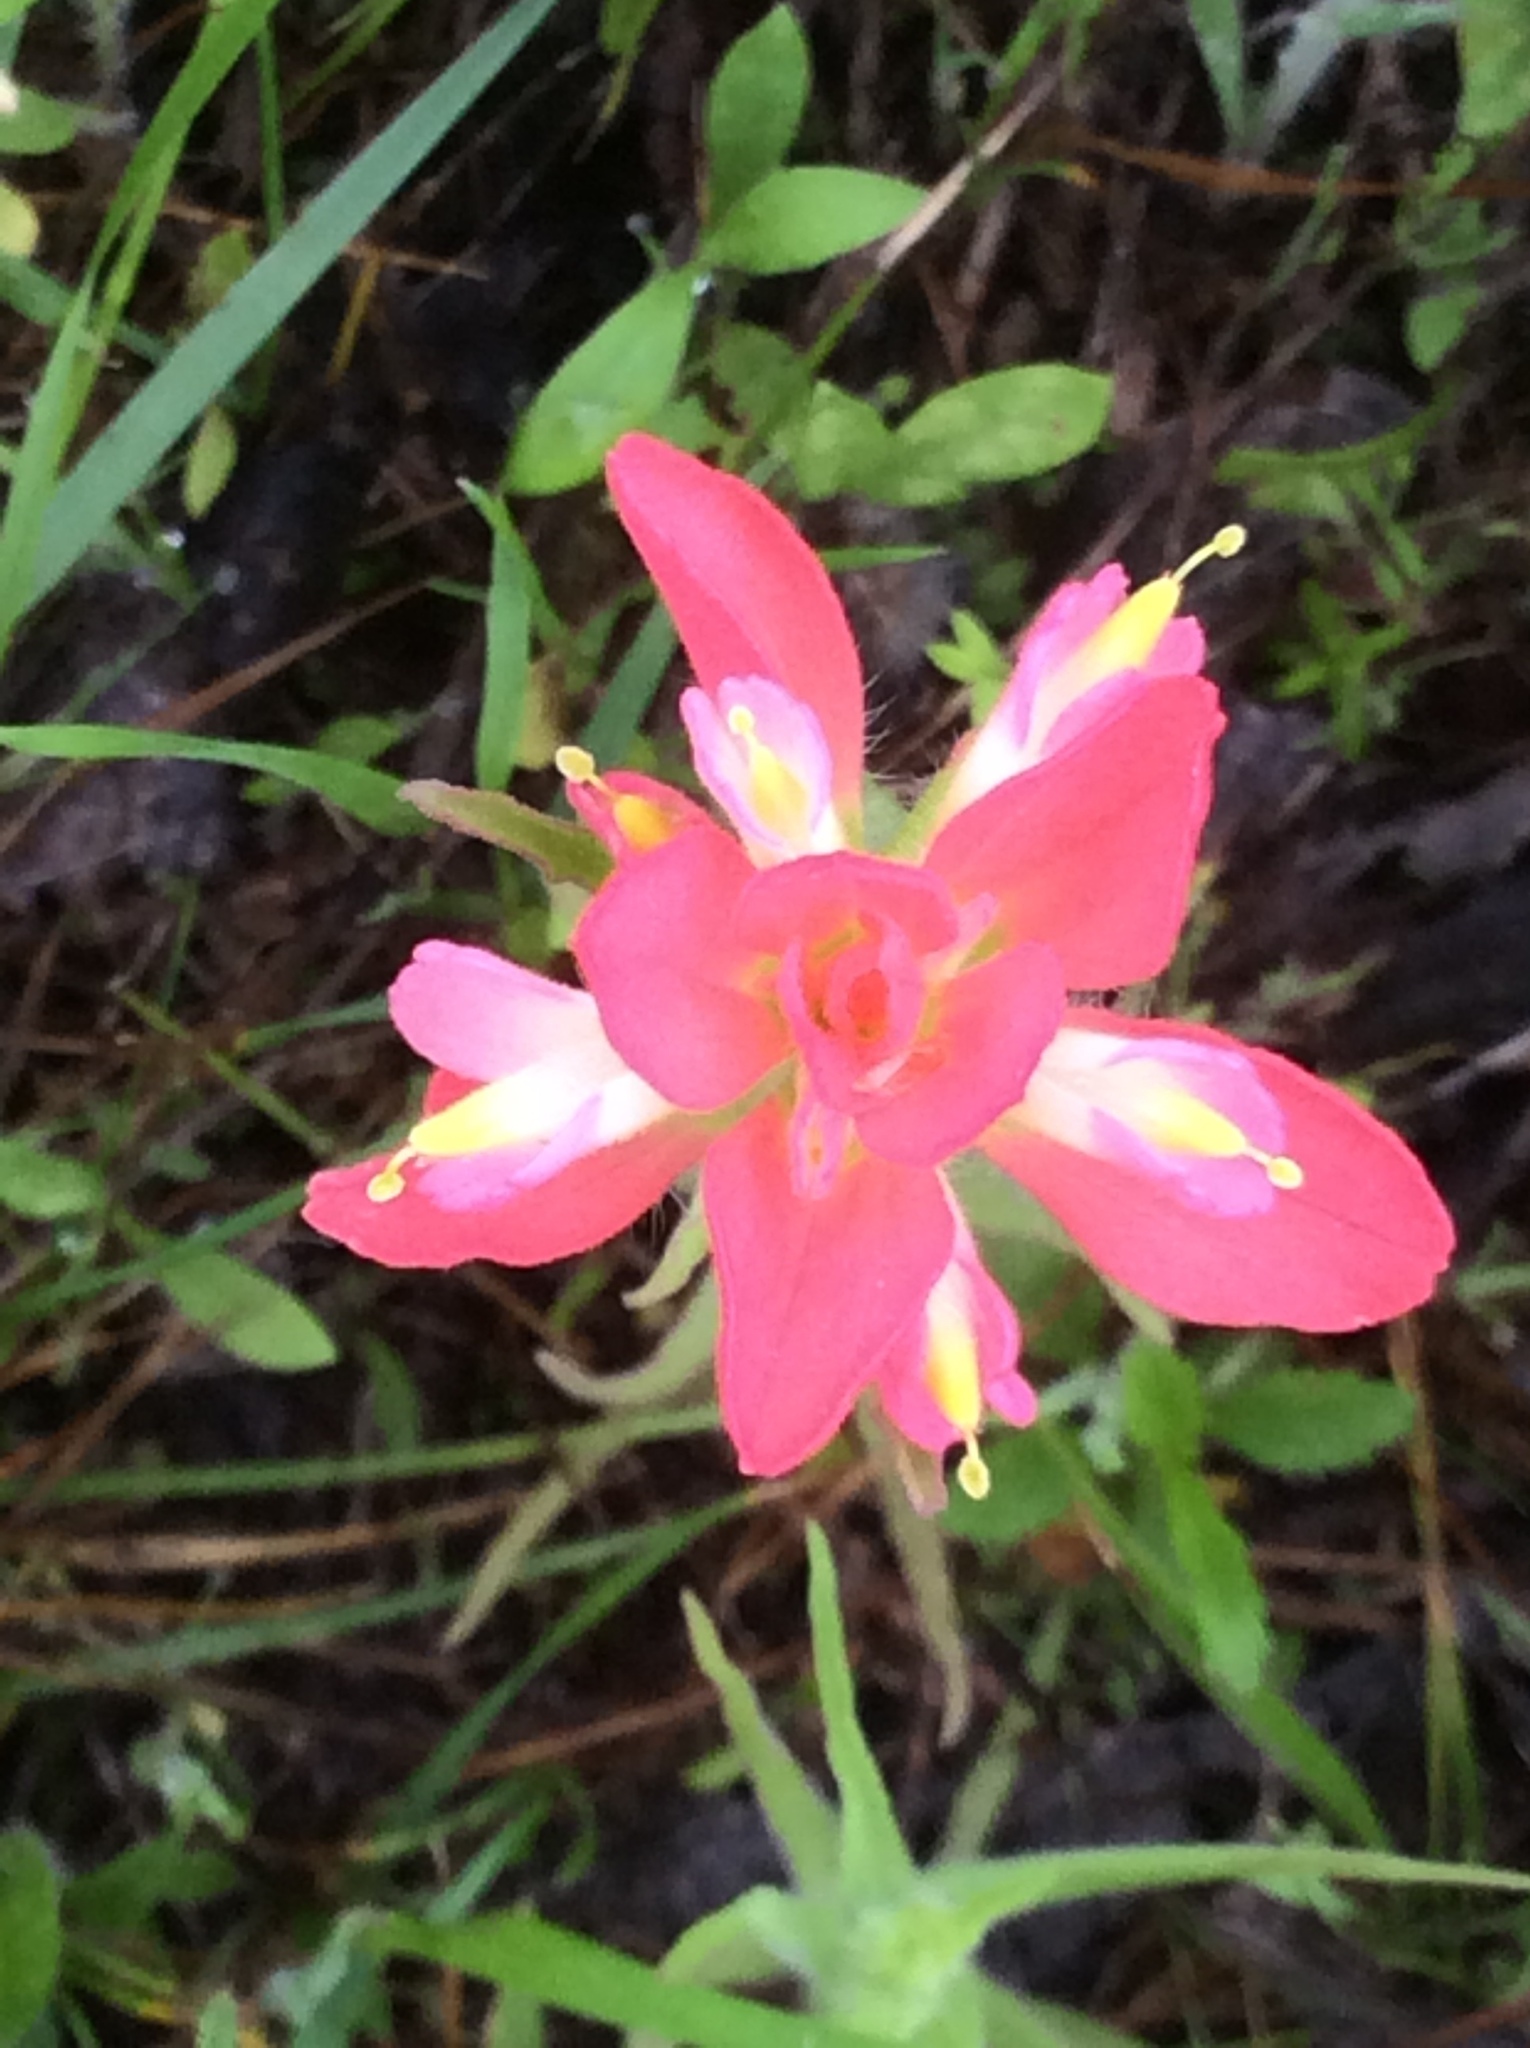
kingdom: Plantae
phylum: Tracheophyta
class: Magnoliopsida
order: Lamiales
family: Orobanchaceae
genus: Castilleja
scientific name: Castilleja indivisa
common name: Texas paintbrush
